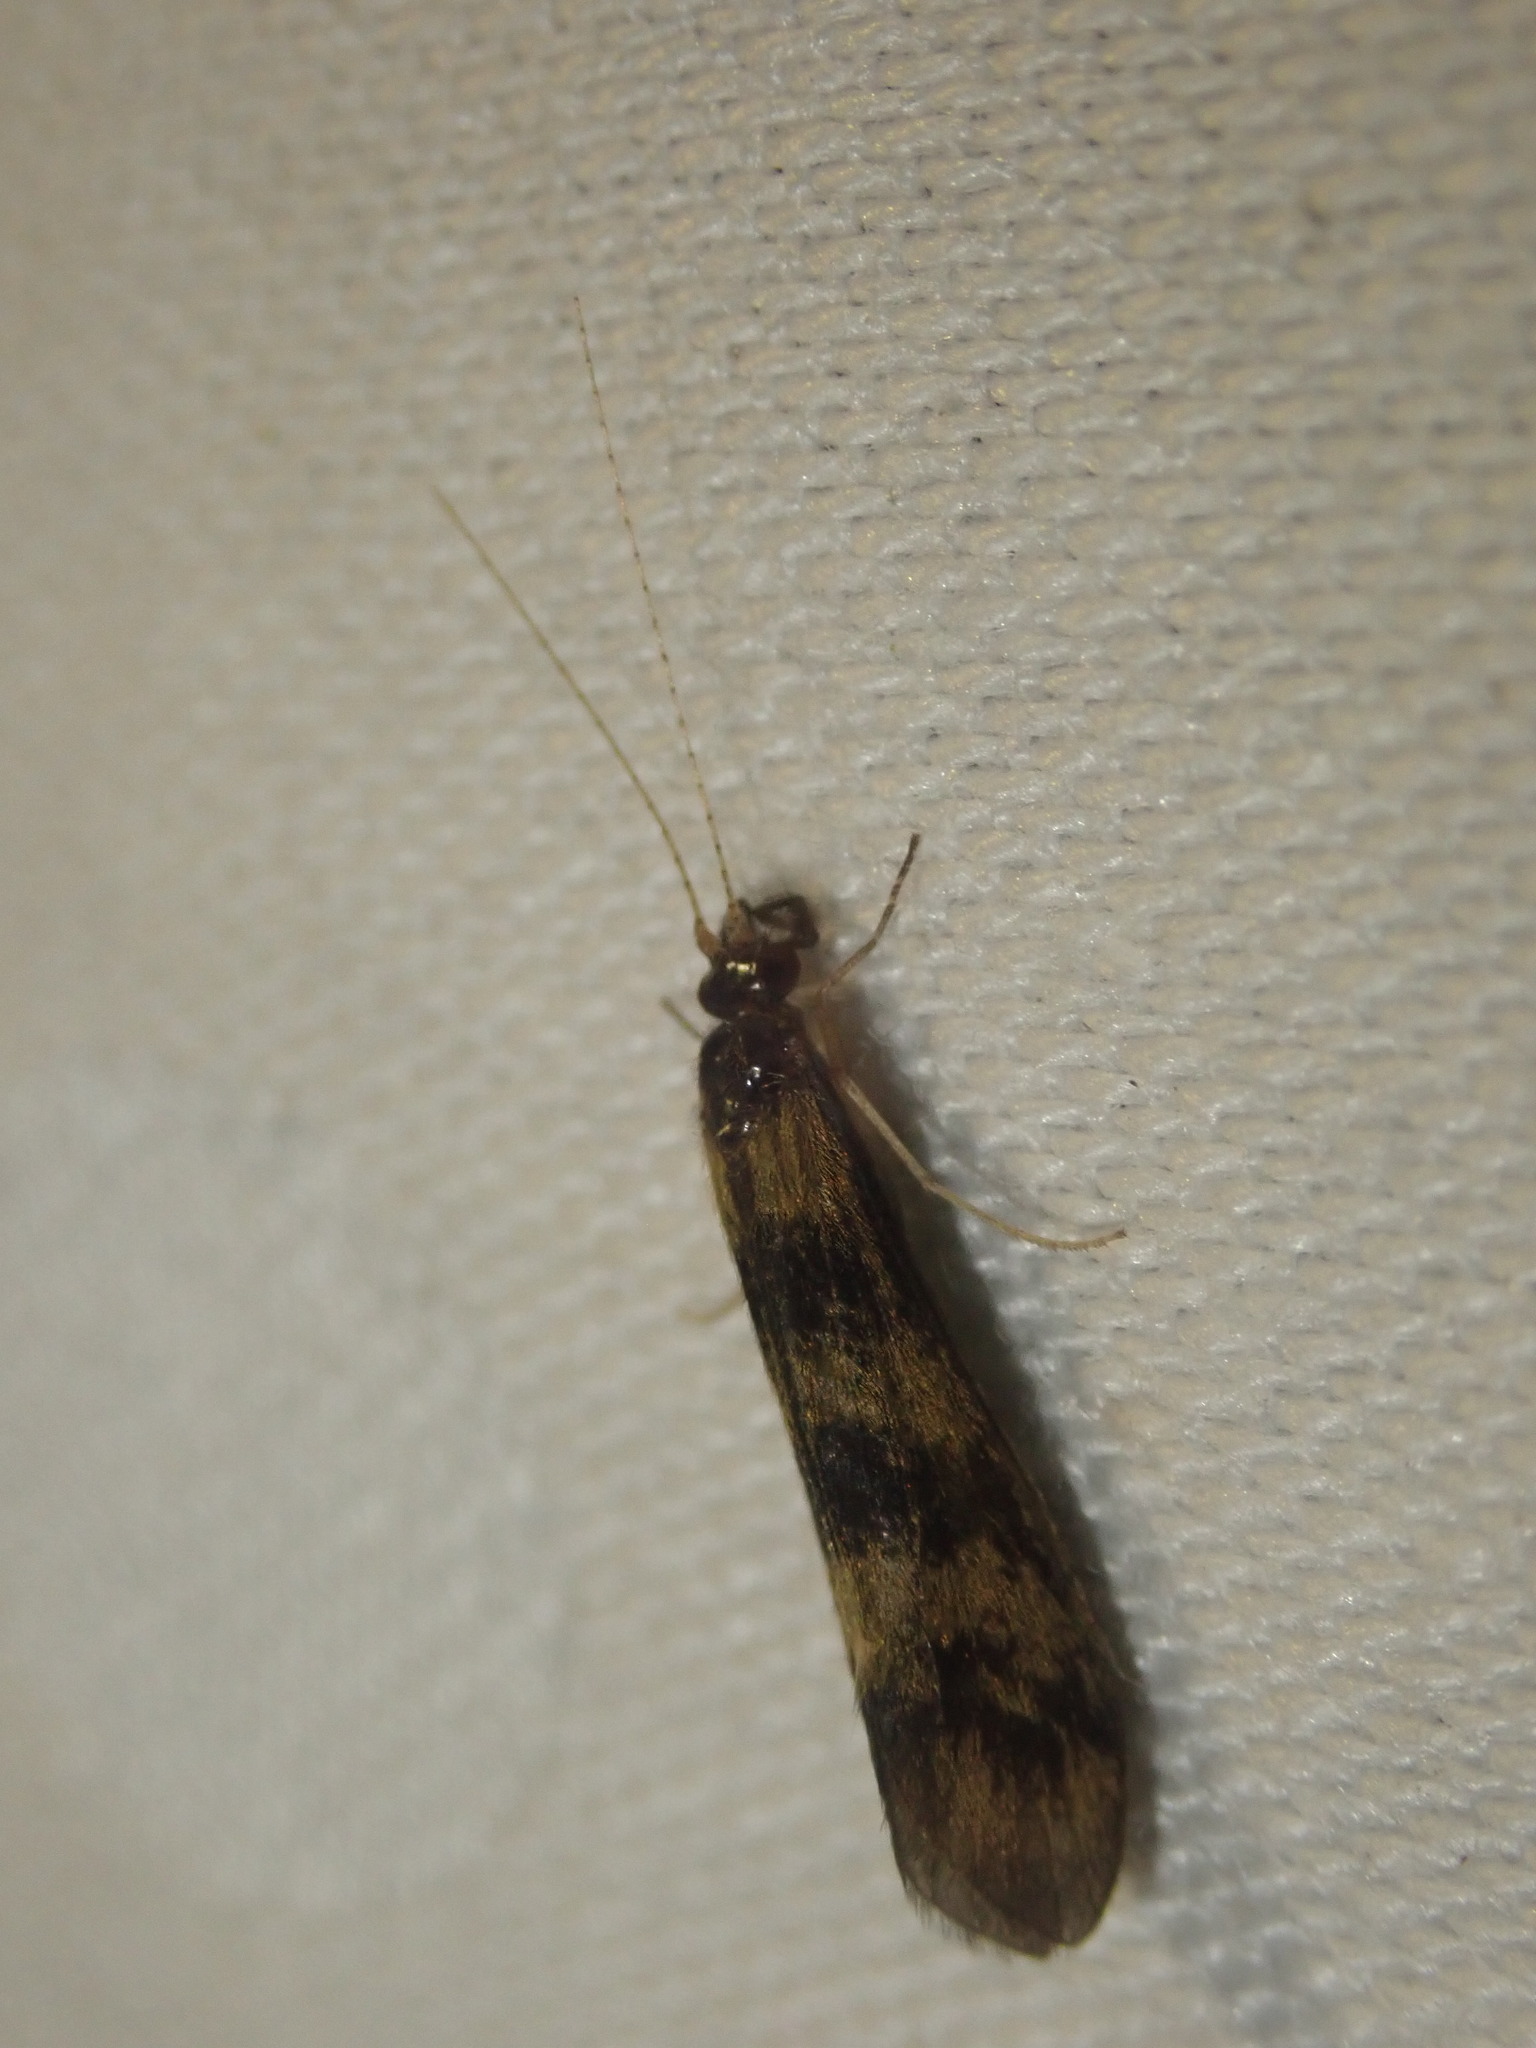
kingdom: Animalia
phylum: Arthropoda
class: Insecta
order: Trichoptera
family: Leptoceridae
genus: Mystacides
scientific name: Mystacides longicornis
